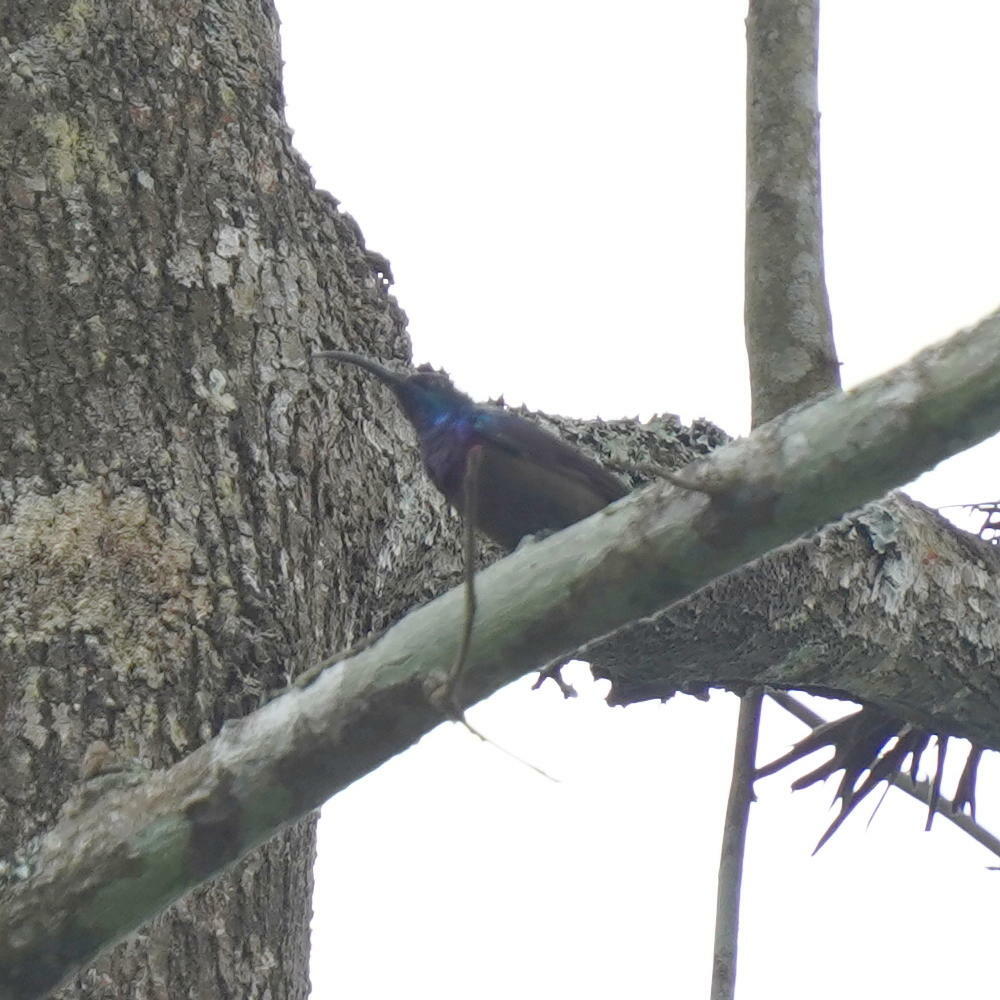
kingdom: Animalia
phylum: Chordata
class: Aves
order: Passeriformes
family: Nectariniidae
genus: Cinnyris
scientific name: Cinnyris lotenius
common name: Loten's sunbird
